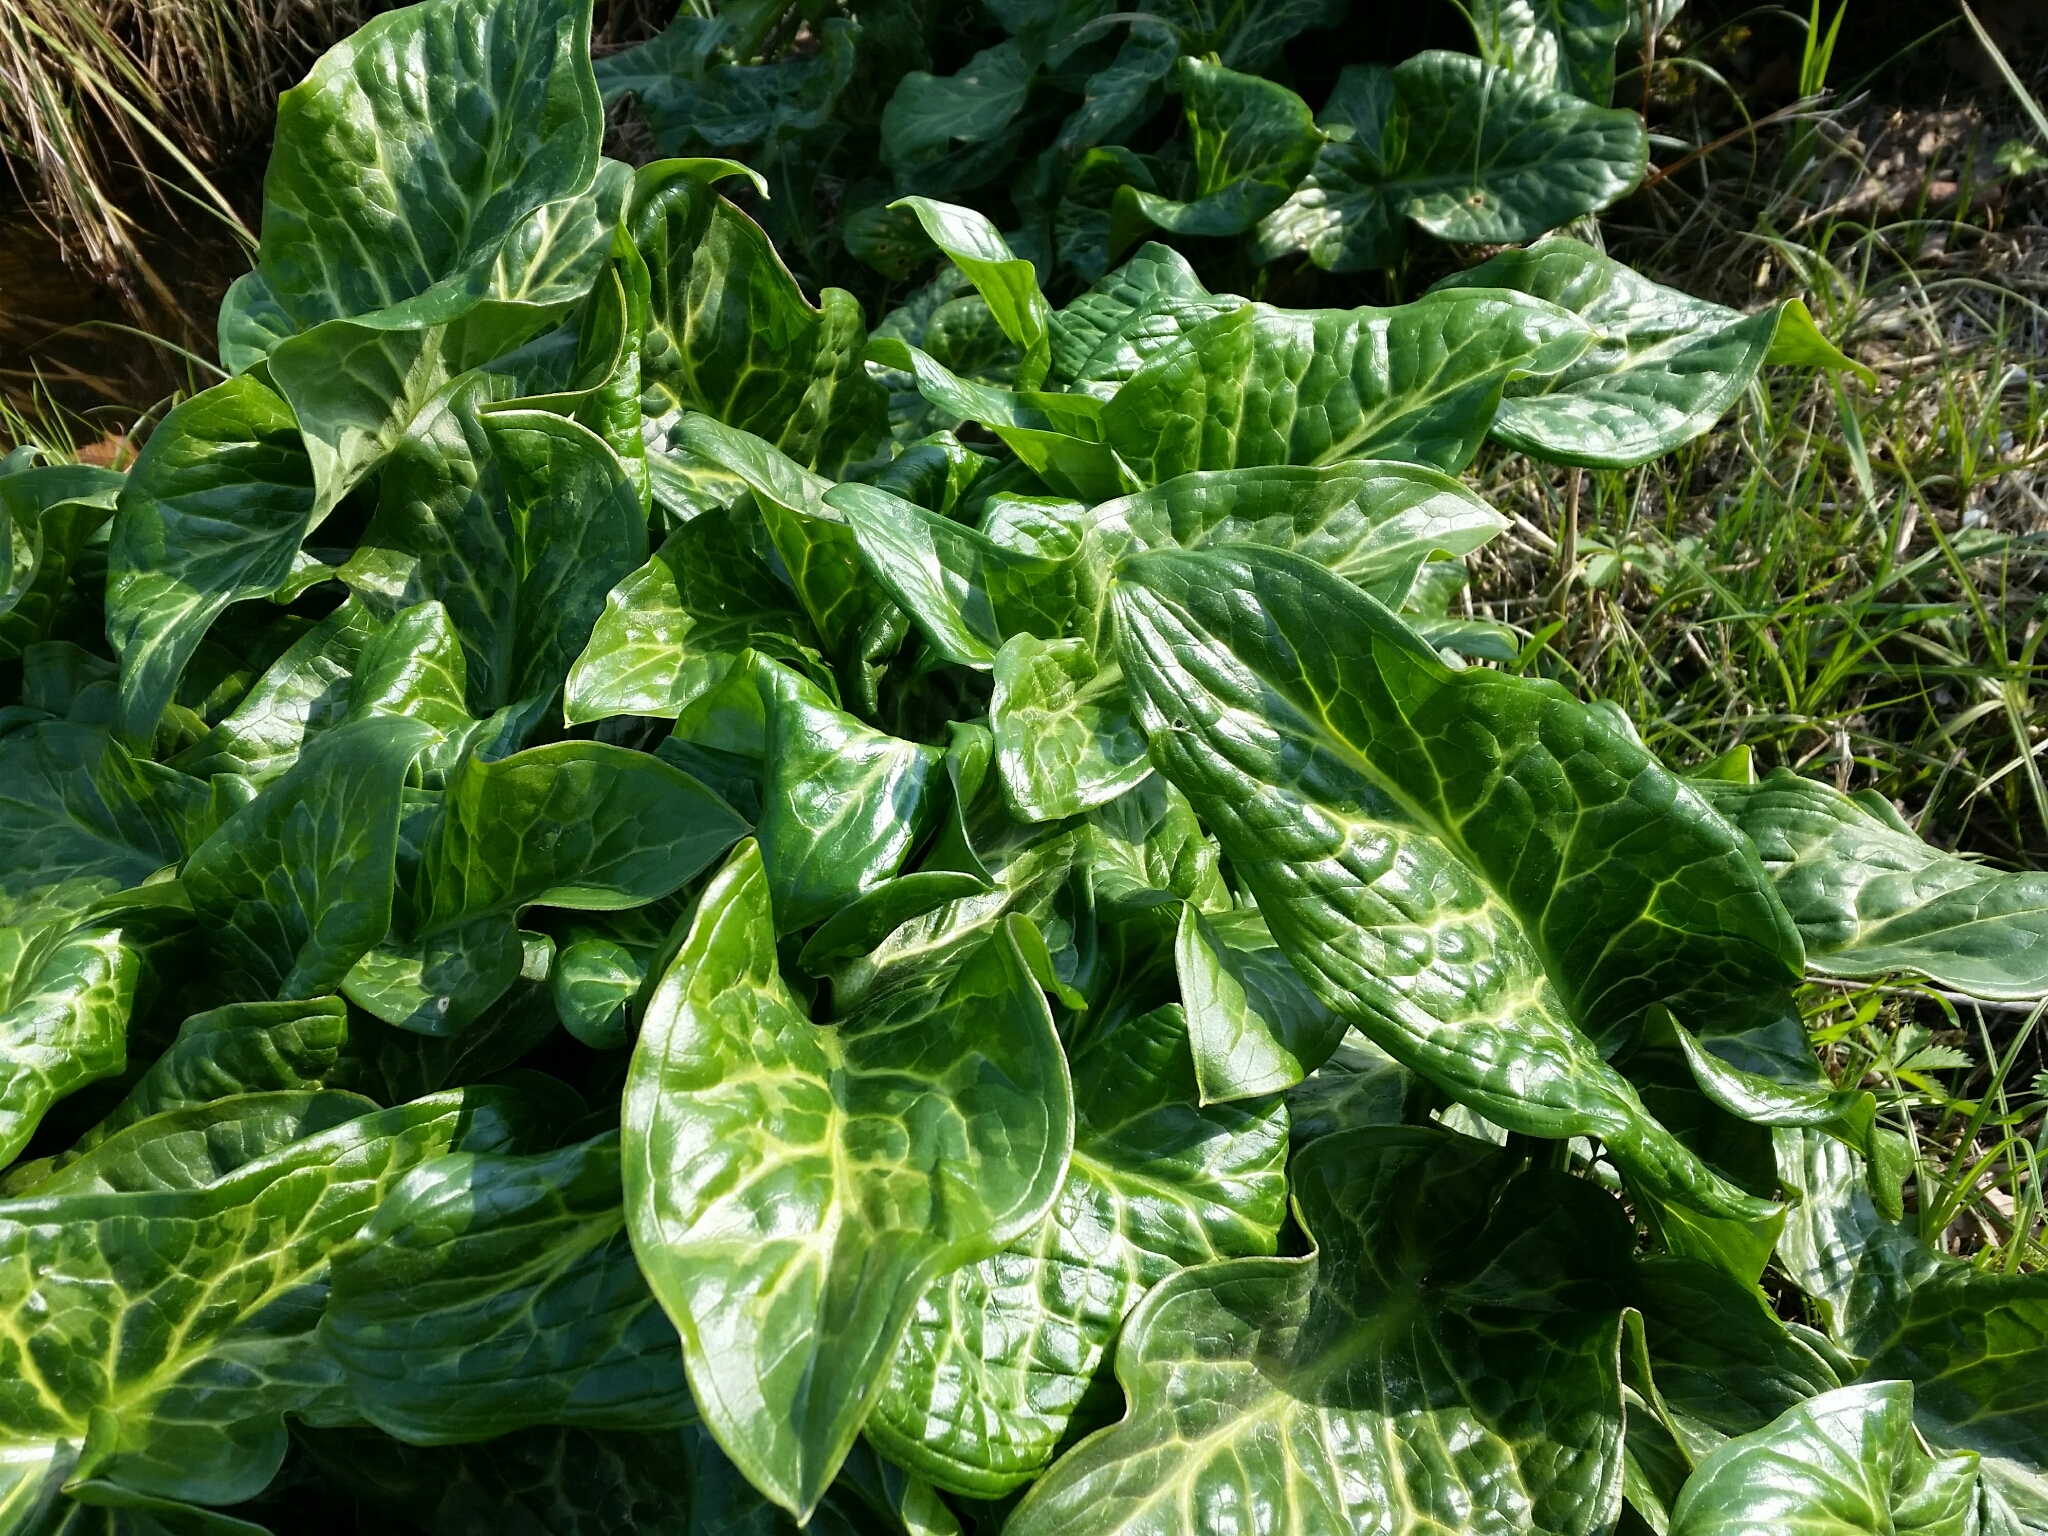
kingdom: Plantae
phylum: Tracheophyta
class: Liliopsida
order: Alismatales
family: Araceae
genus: Arum
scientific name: Arum italicum
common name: Italian lords-and-ladies
